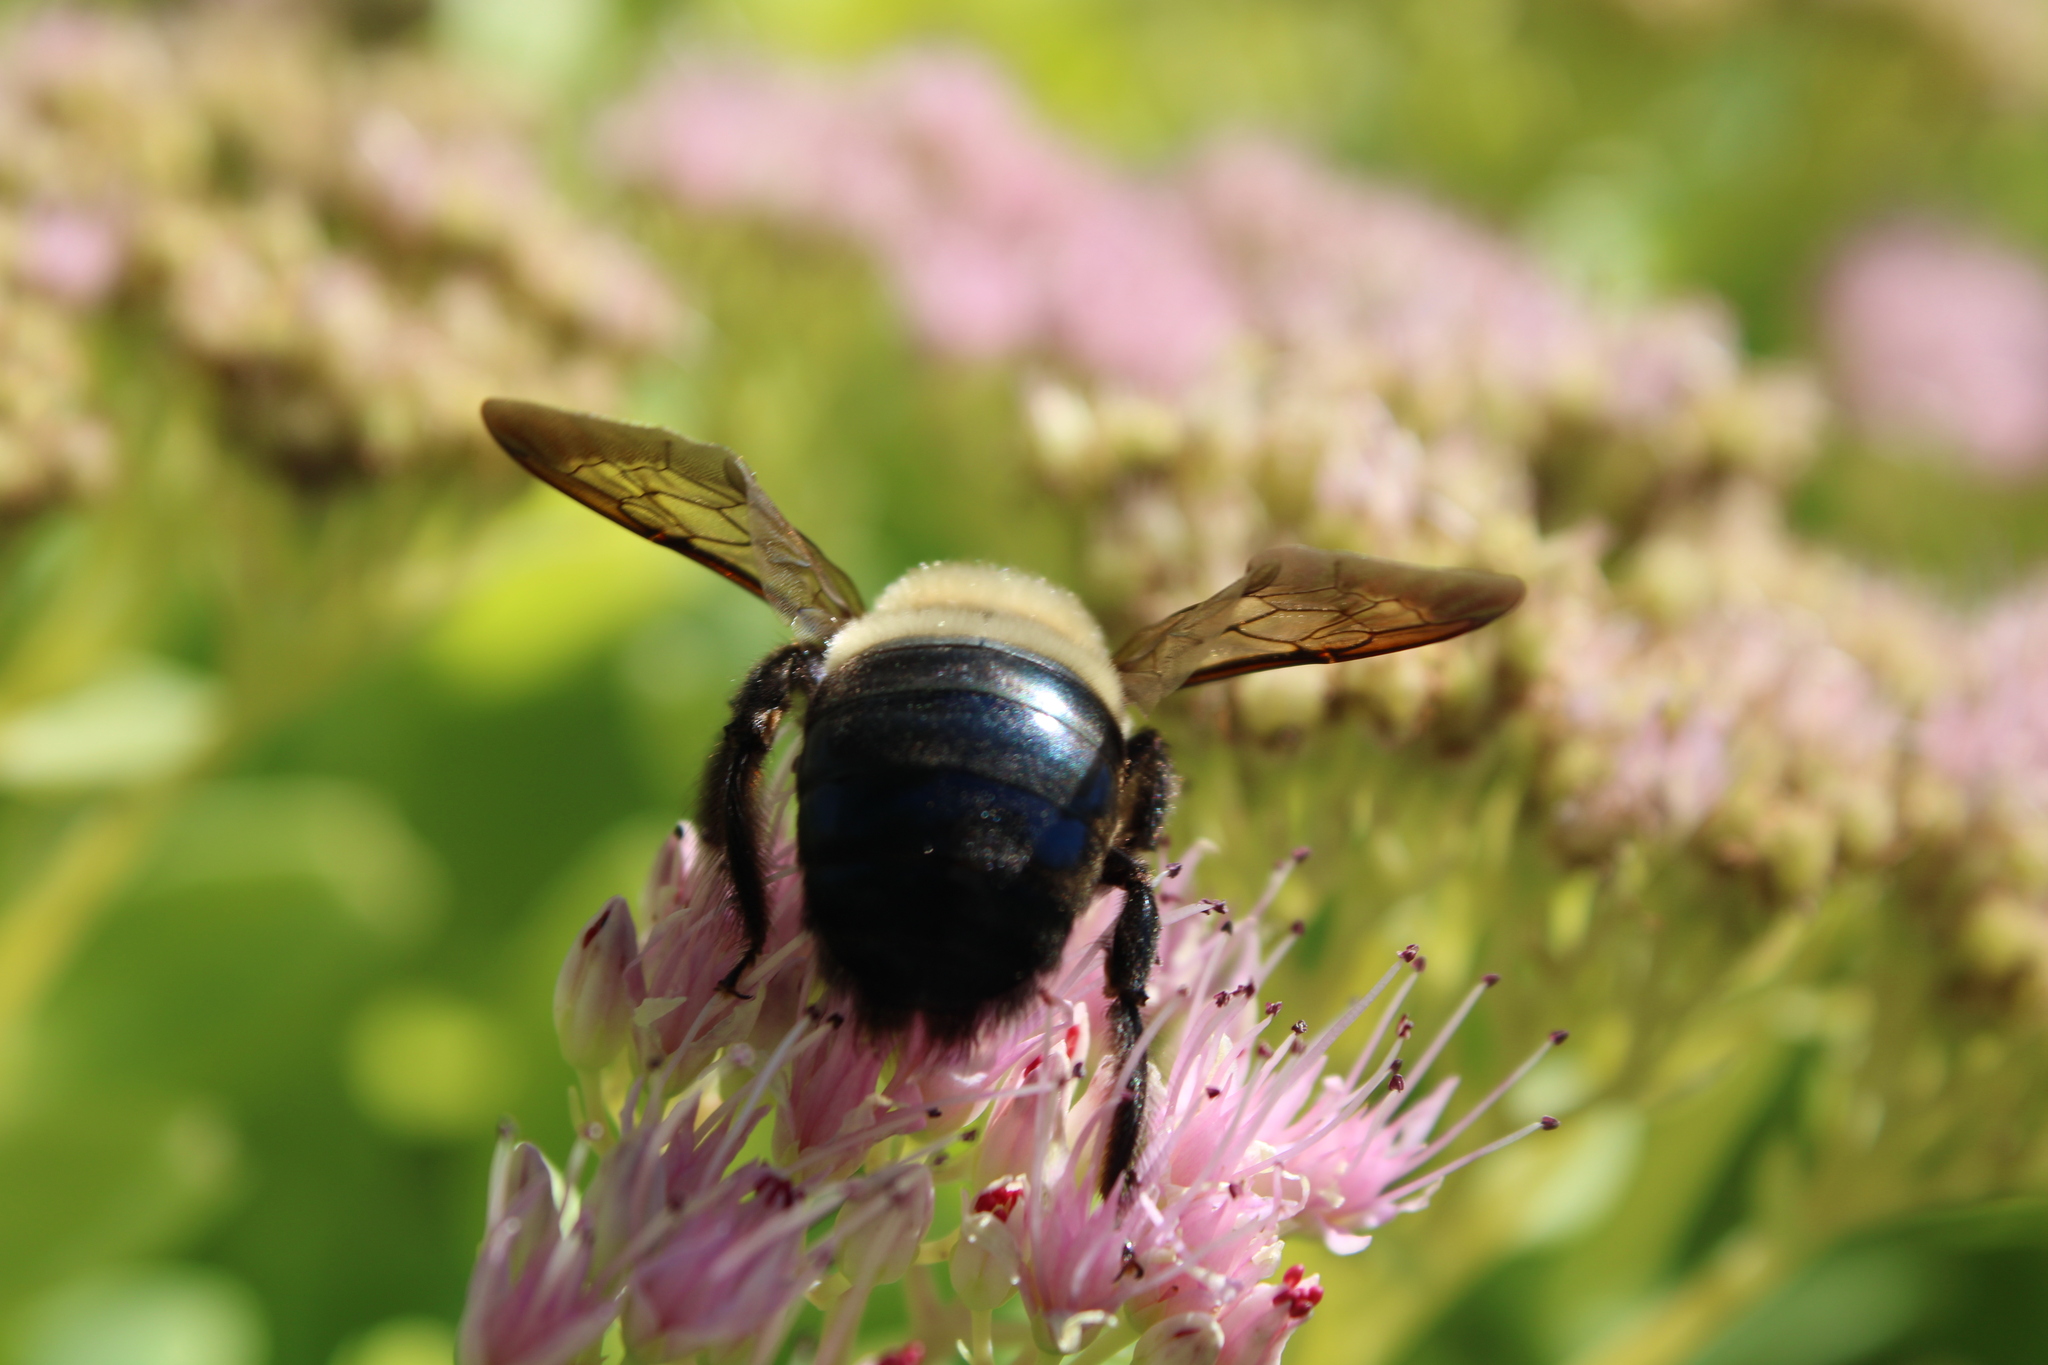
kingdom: Animalia
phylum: Arthropoda
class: Insecta
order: Hymenoptera
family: Apidae
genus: Xylocopa
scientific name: Xylocopa virginica
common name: Carpenter bee
